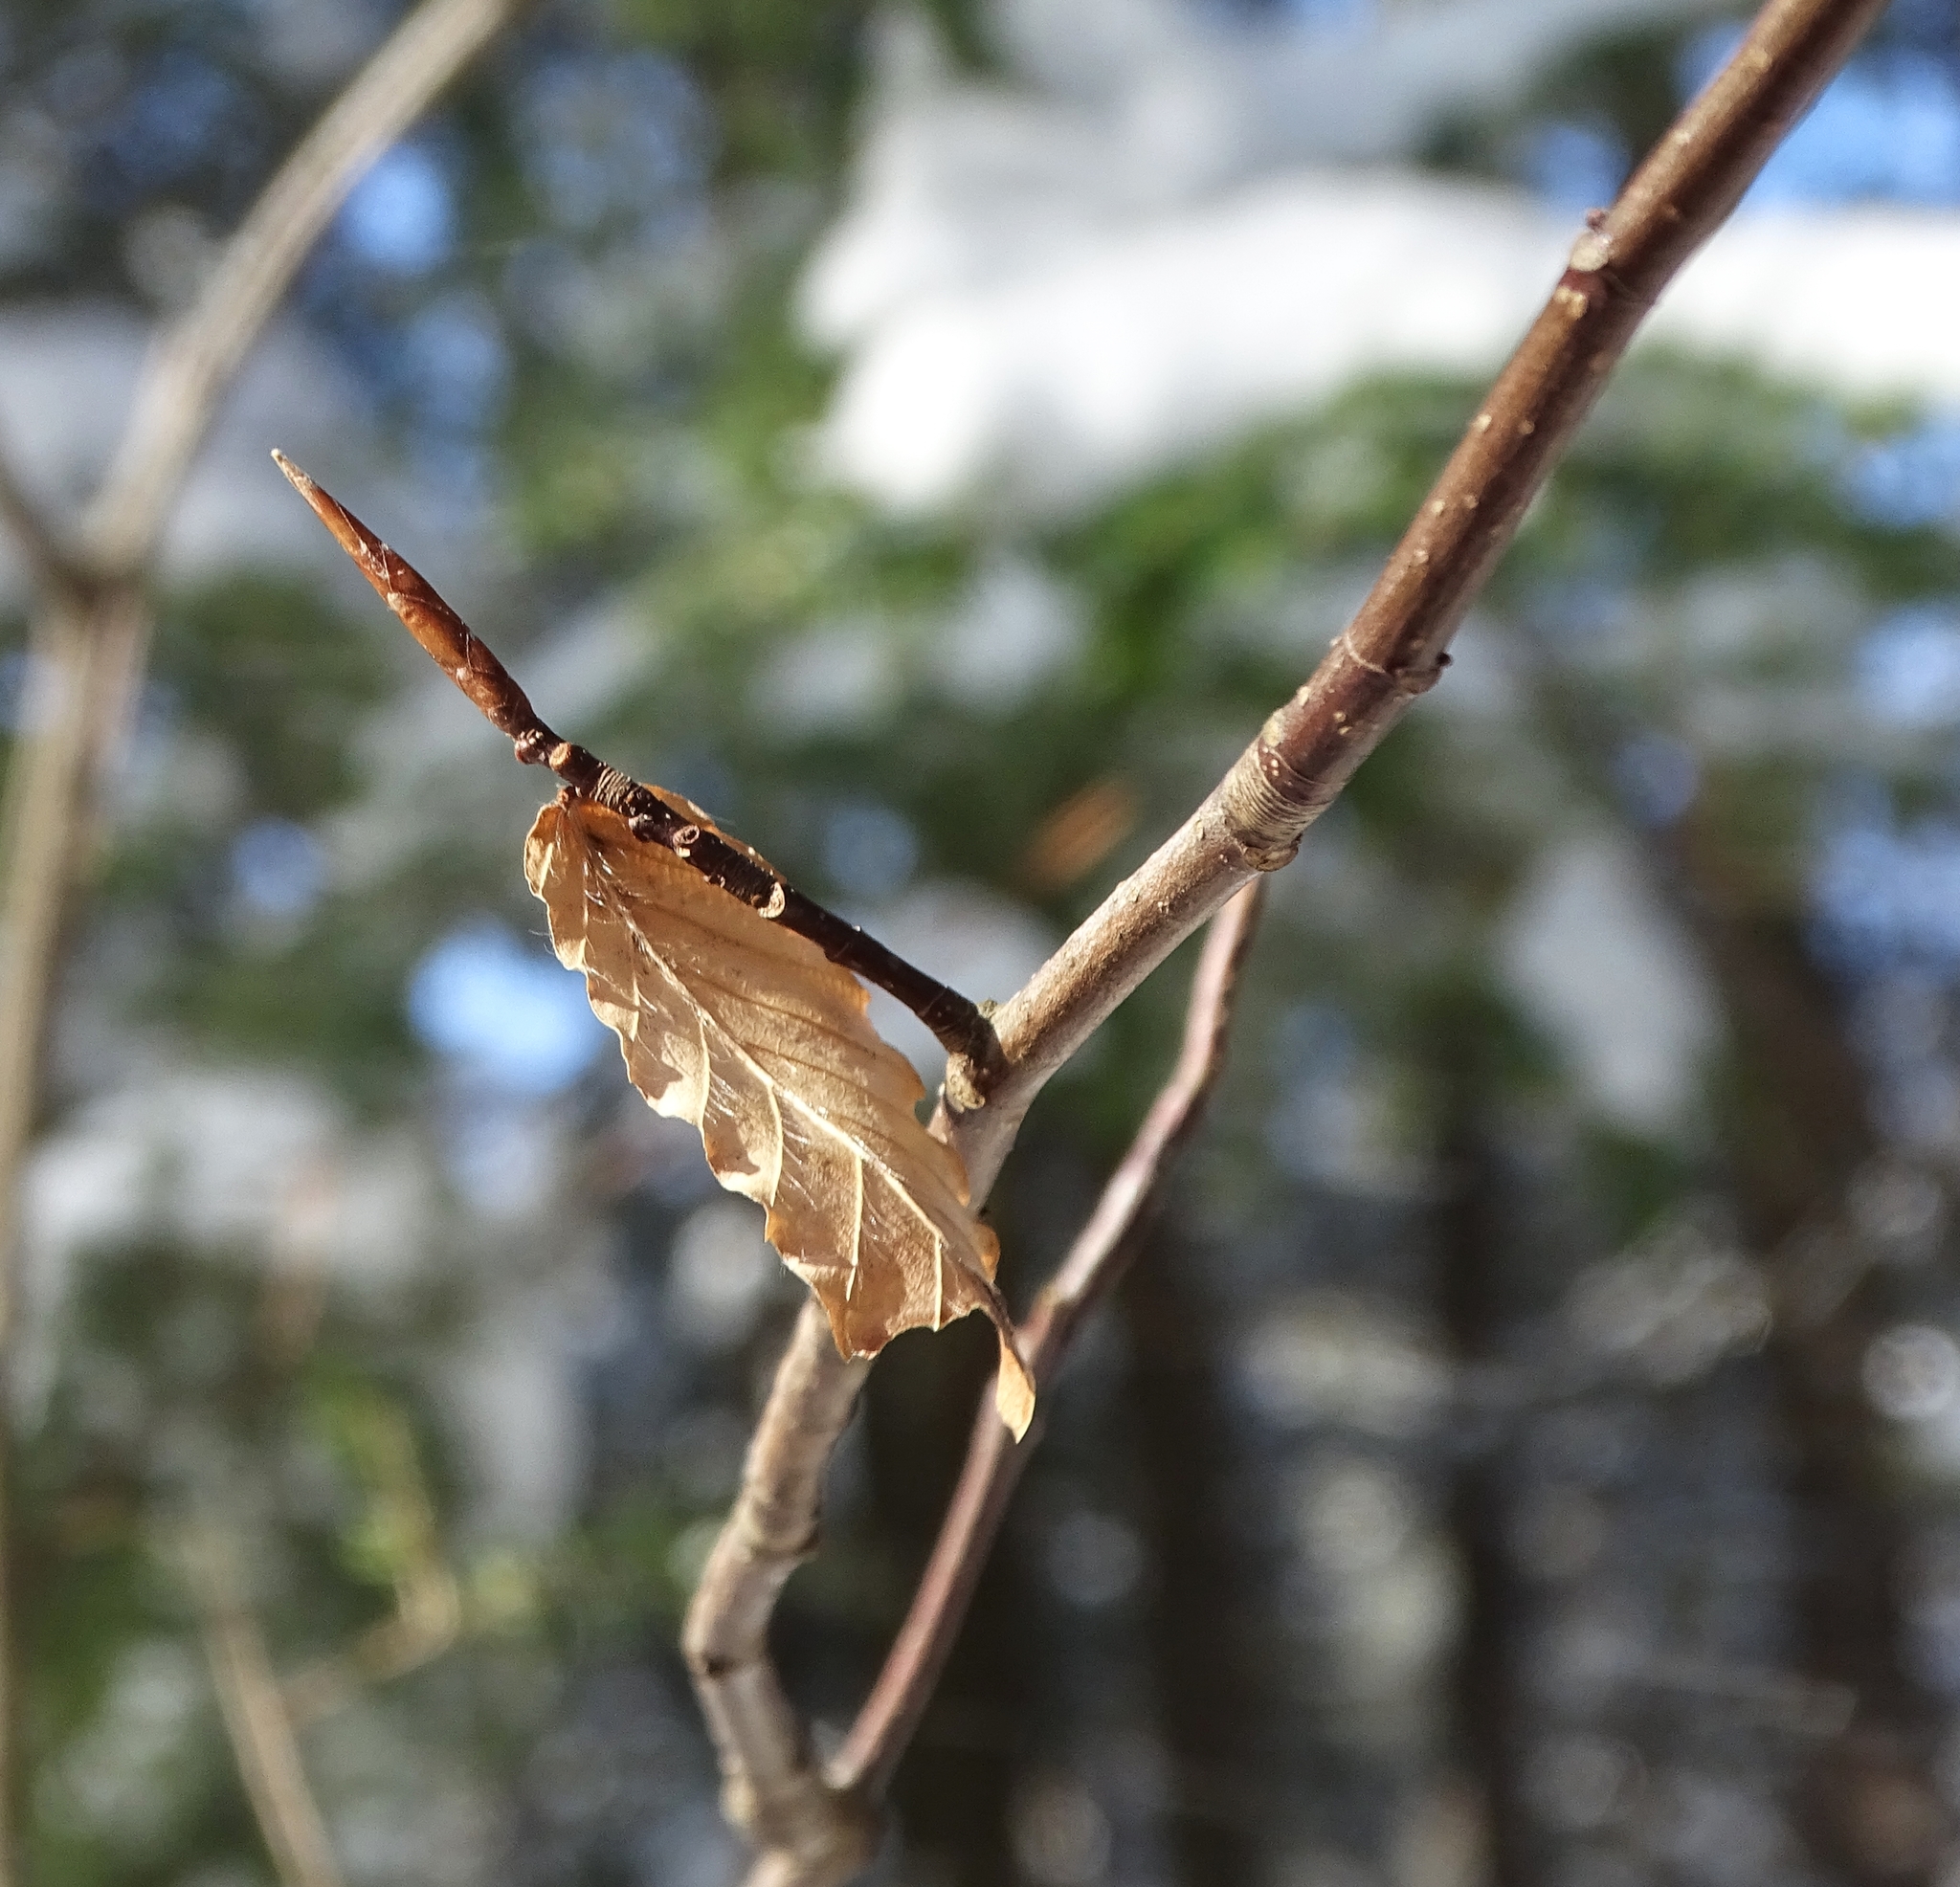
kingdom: Plantae
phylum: Tracheophyta
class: Magnoliopsida
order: Fagales
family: Fagaceae
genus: Fagus
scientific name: Fagus grandifolia
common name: American beech
